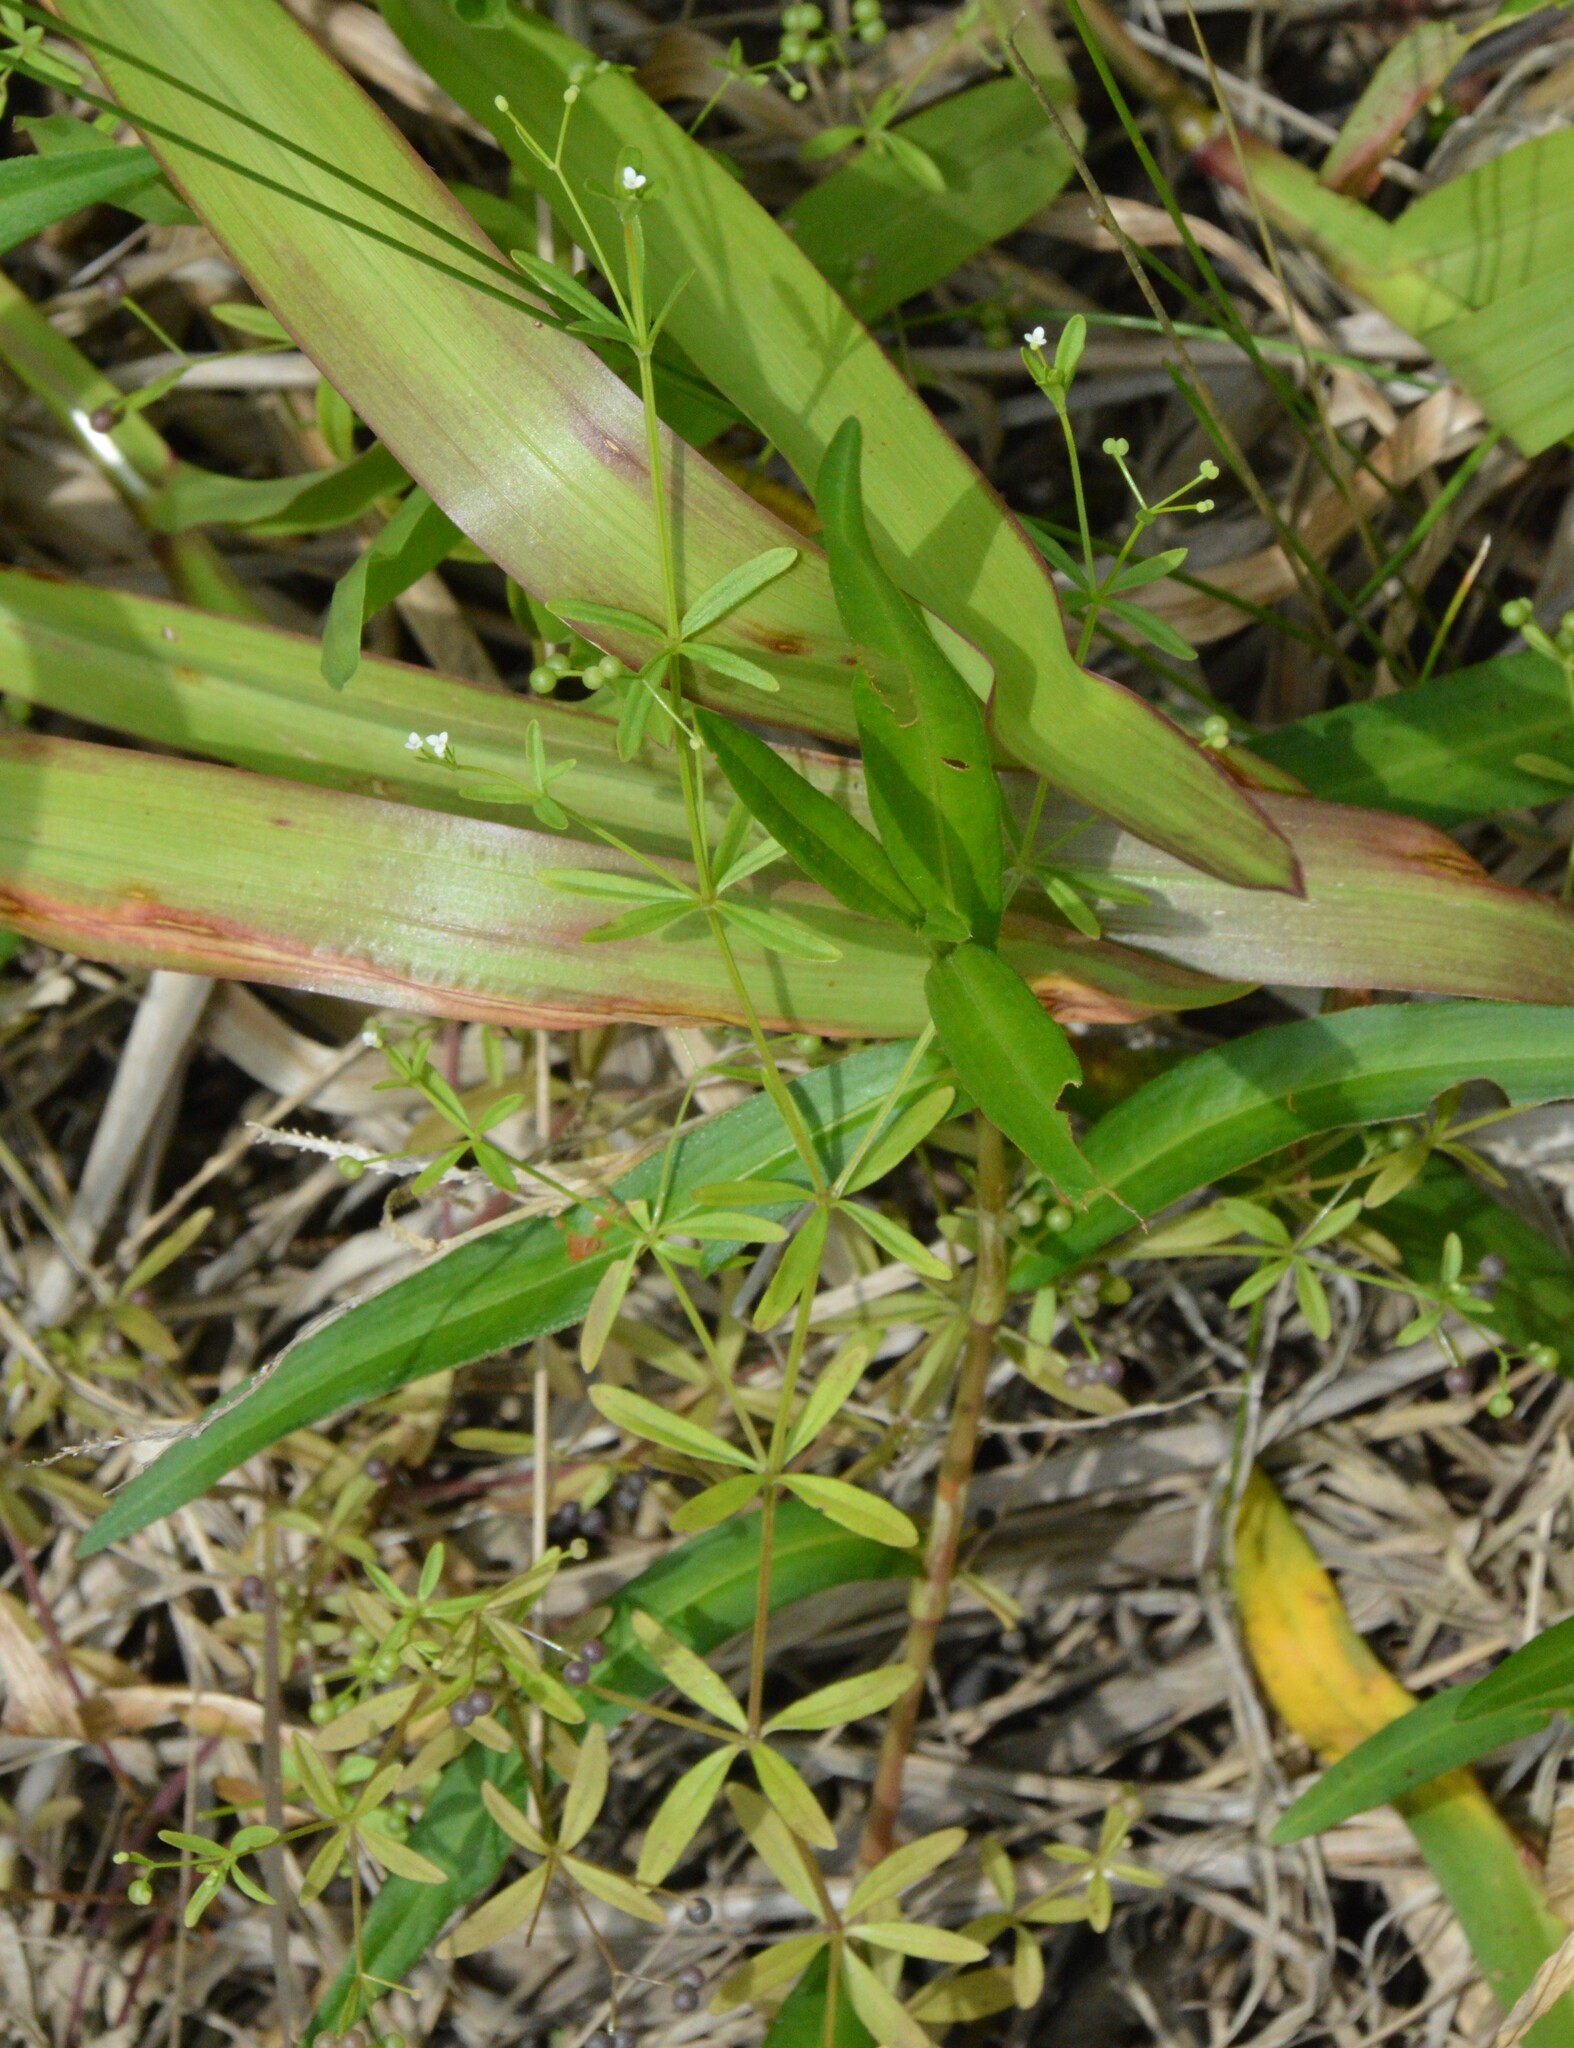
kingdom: Plantae
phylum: Tracheophyta
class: Magnoliopsida
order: Gentianales
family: Rubiaceae
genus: Galium
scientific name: Galium tinctorium
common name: Bedstraw
